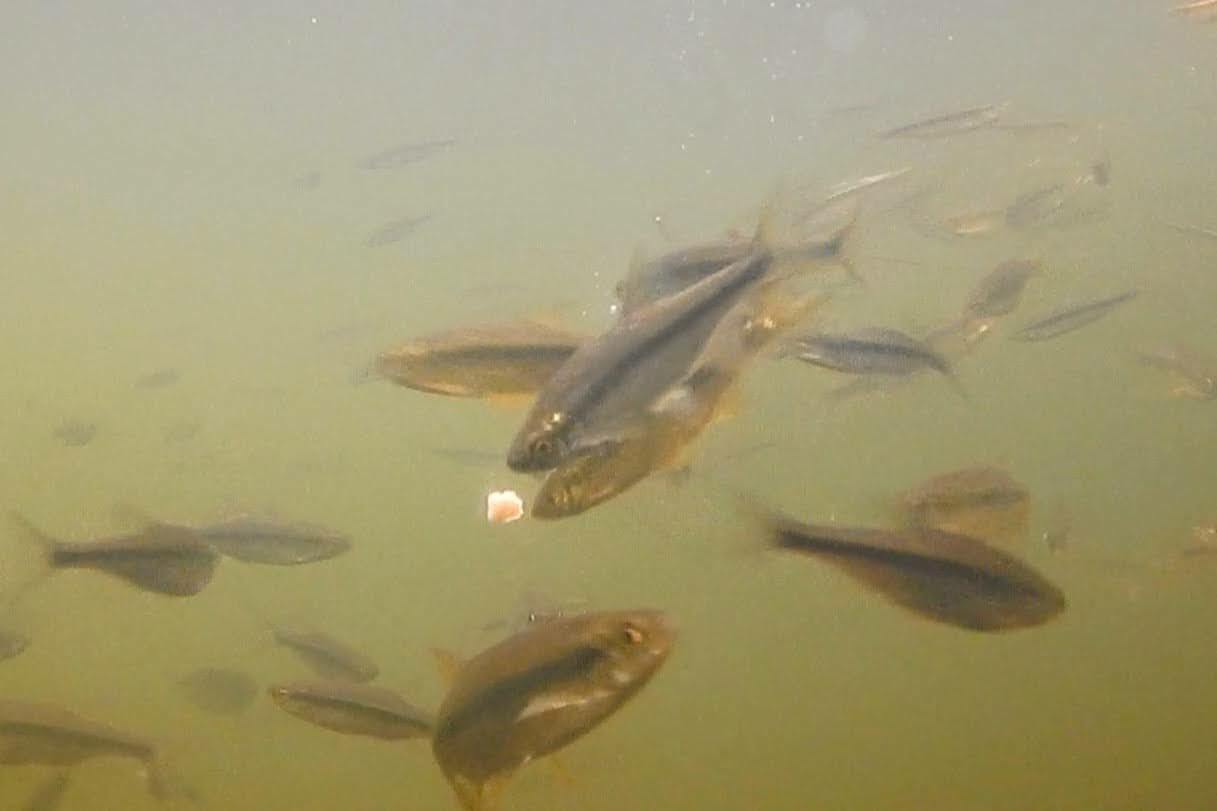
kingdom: Animalia
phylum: Chordata
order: Cypriniformes
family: Cyprinidae
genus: Notemigonus
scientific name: Notemigonus crysoleucas
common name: Golden shiner
